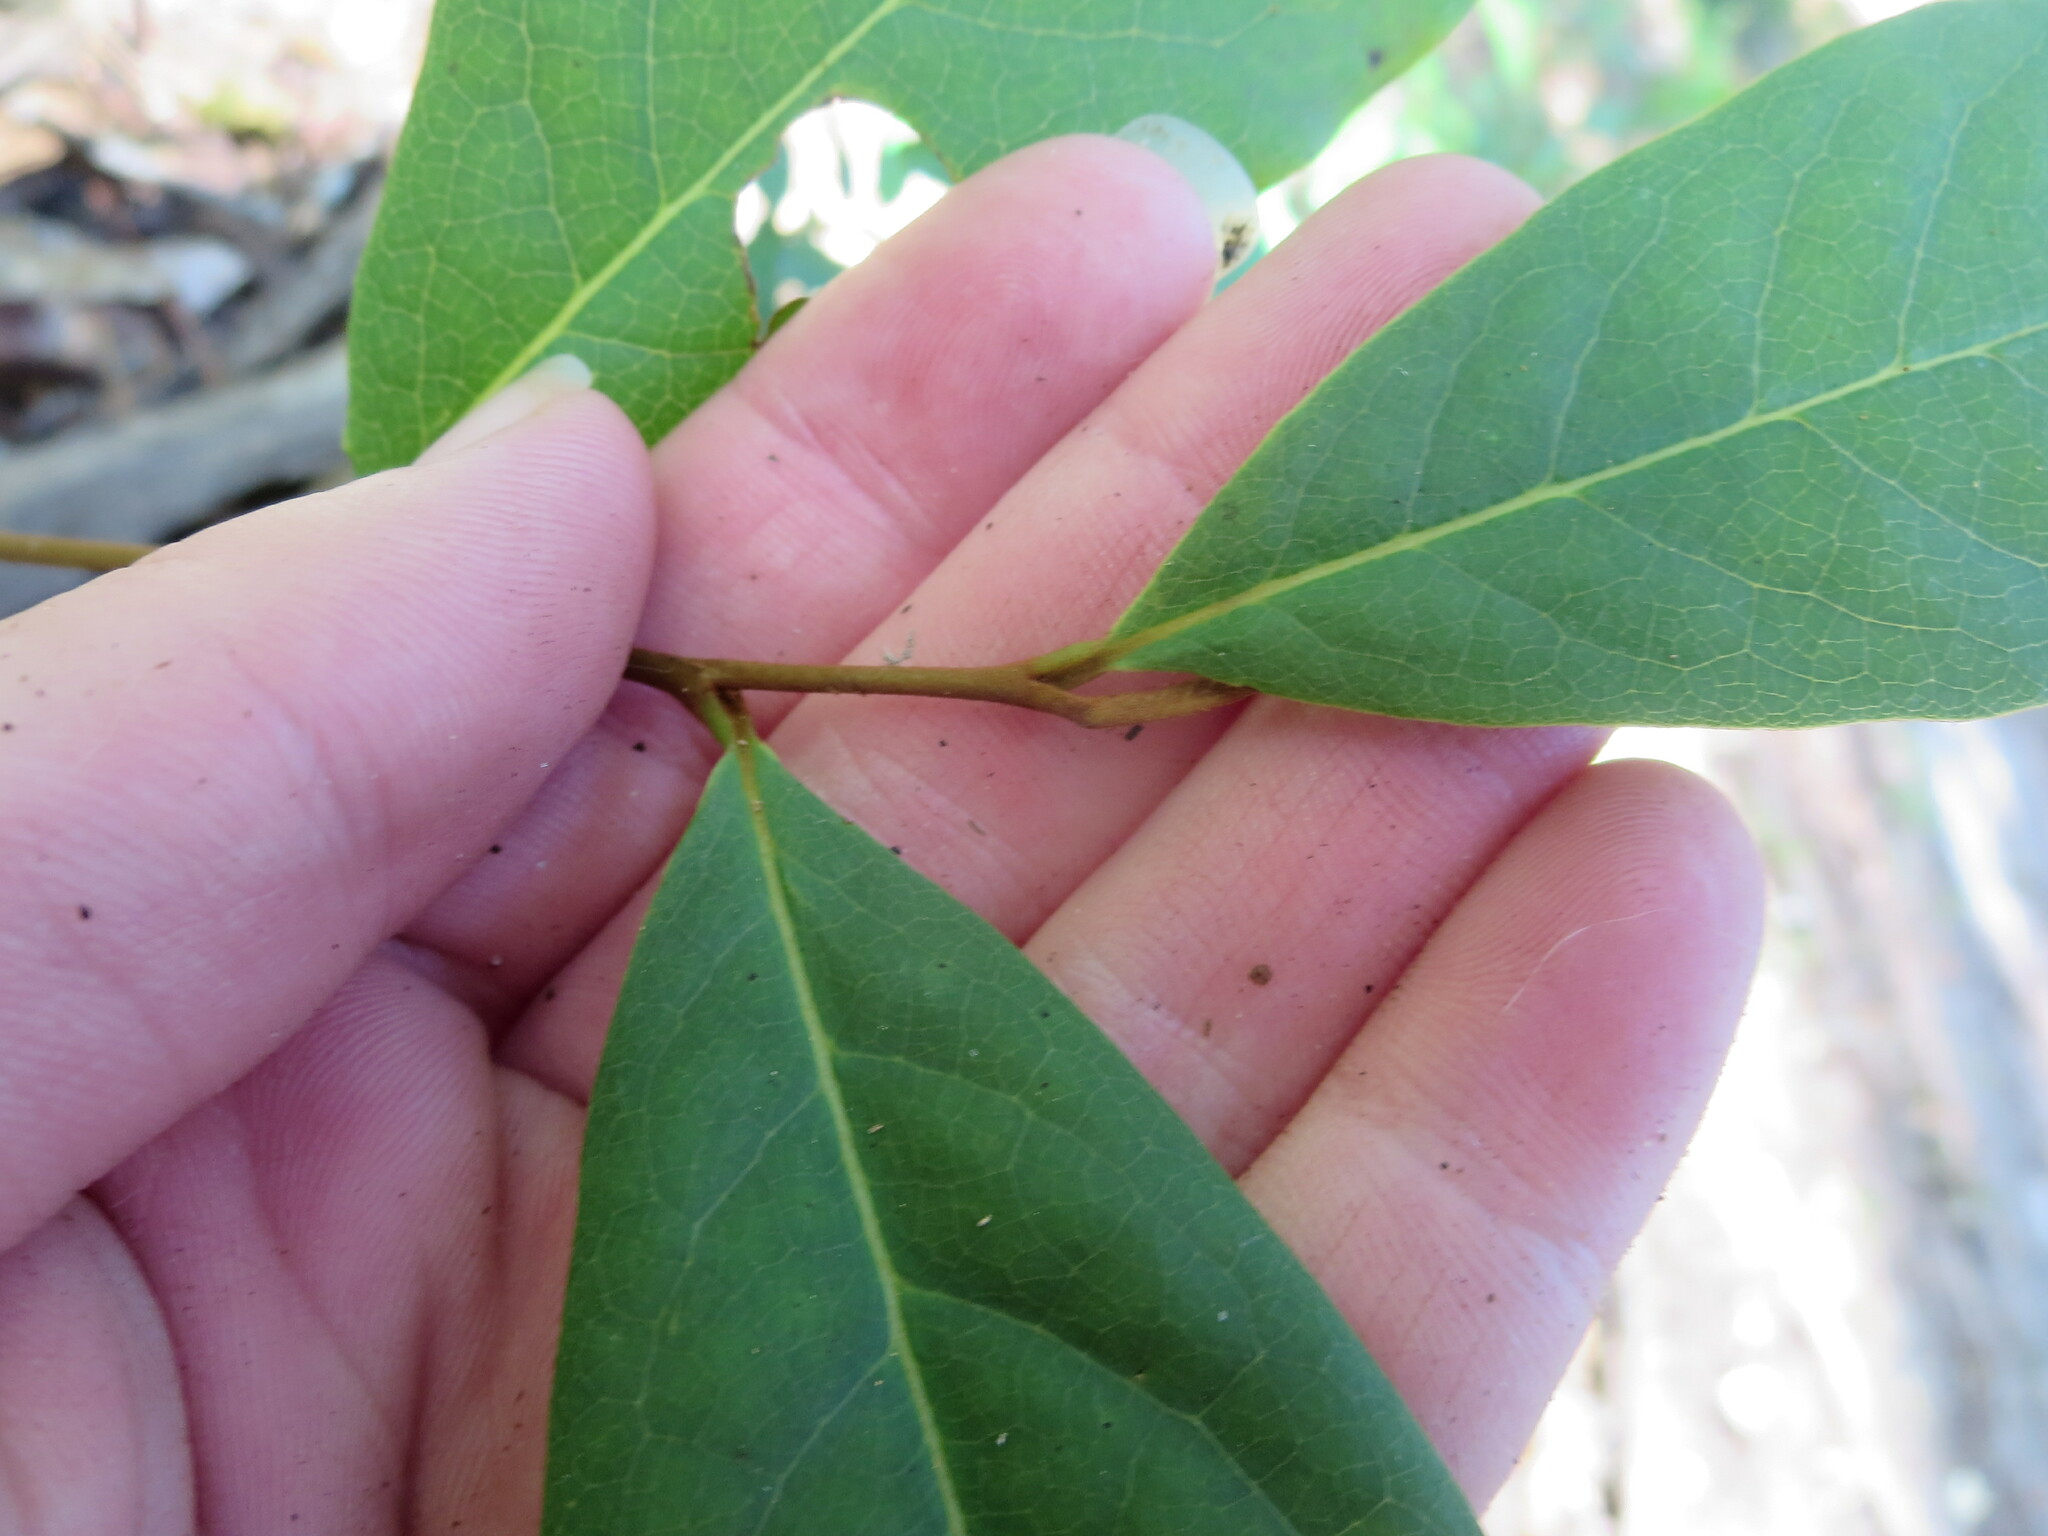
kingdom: Plantae
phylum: Tracheophyta
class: Magnoliopsida
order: Magnoliales
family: Annonaceae
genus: Asimina
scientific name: Asimina parviflora
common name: Dwarf pawpaw
